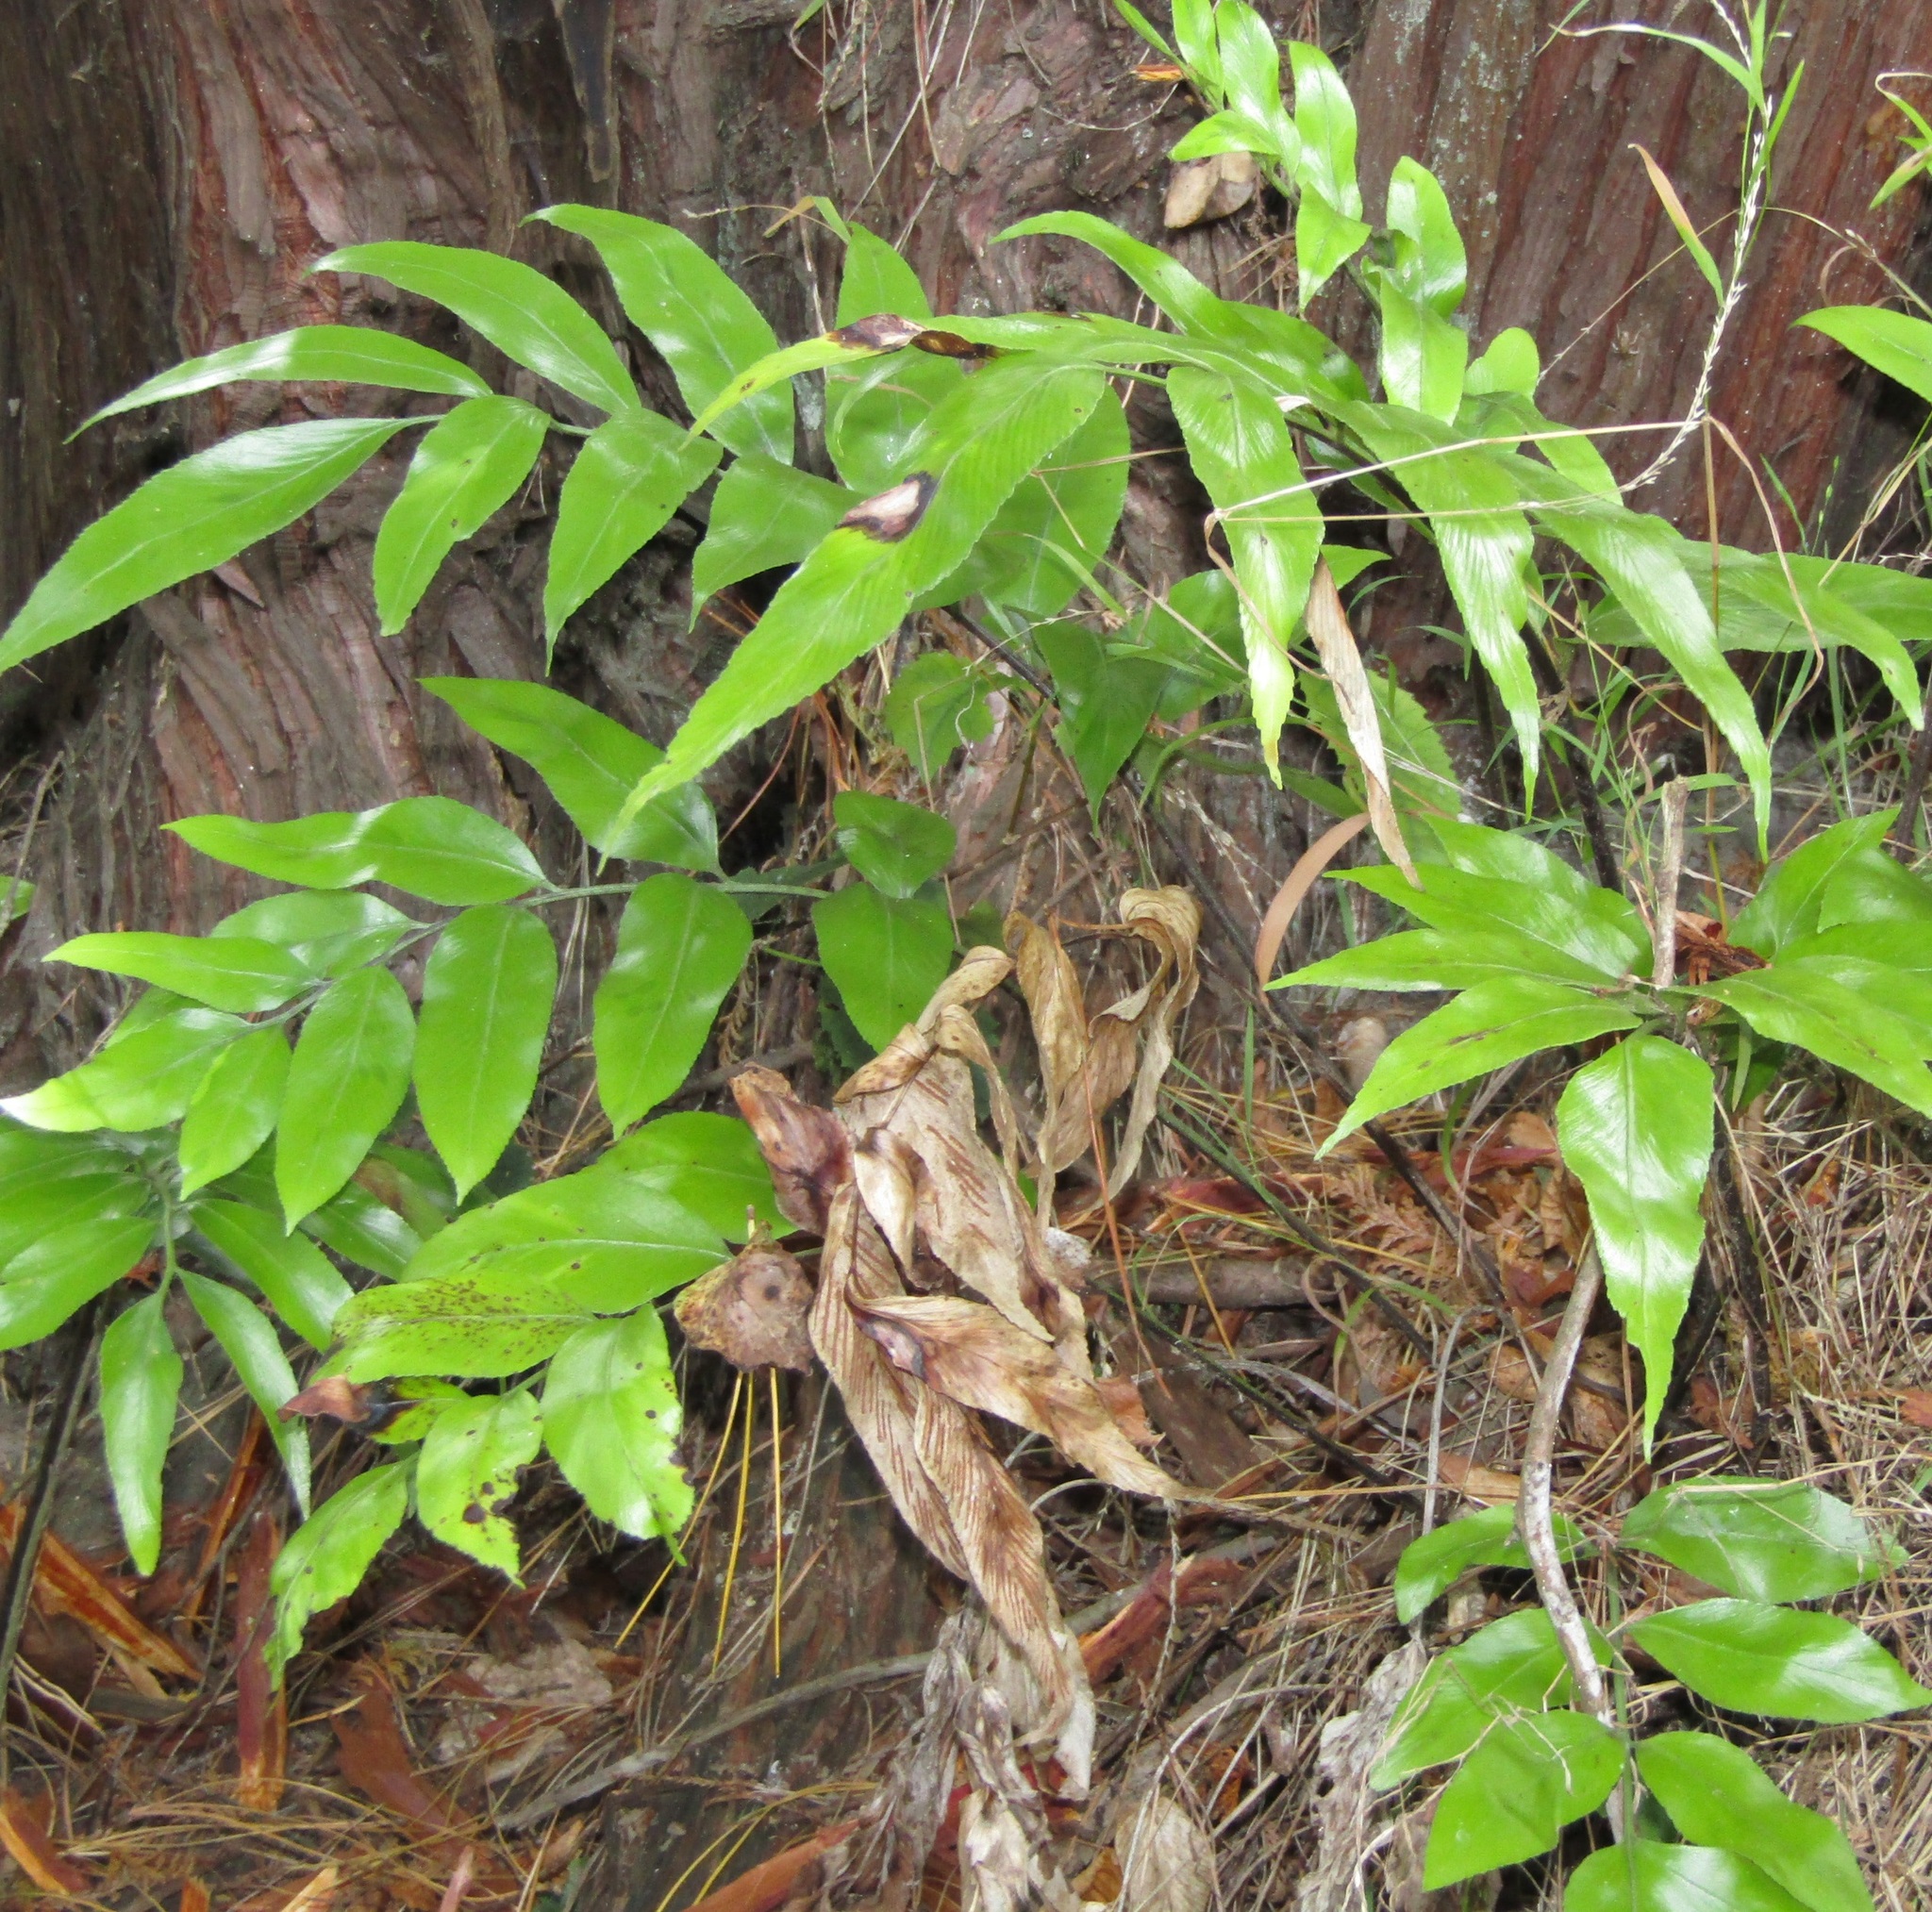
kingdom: Plantae
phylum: Tracheophyta
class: Polypodiopsida
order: Polypodiales
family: Aspleniaceae
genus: Asplenium
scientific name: Asplenium oblongifolium
